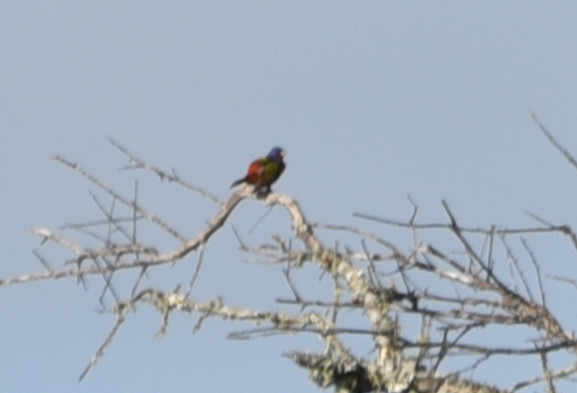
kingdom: Animalia
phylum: Chordata
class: Aves
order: Passeriformes
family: Cardinalidae
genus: Passerina
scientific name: Passerina ciris
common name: Painted bunting
